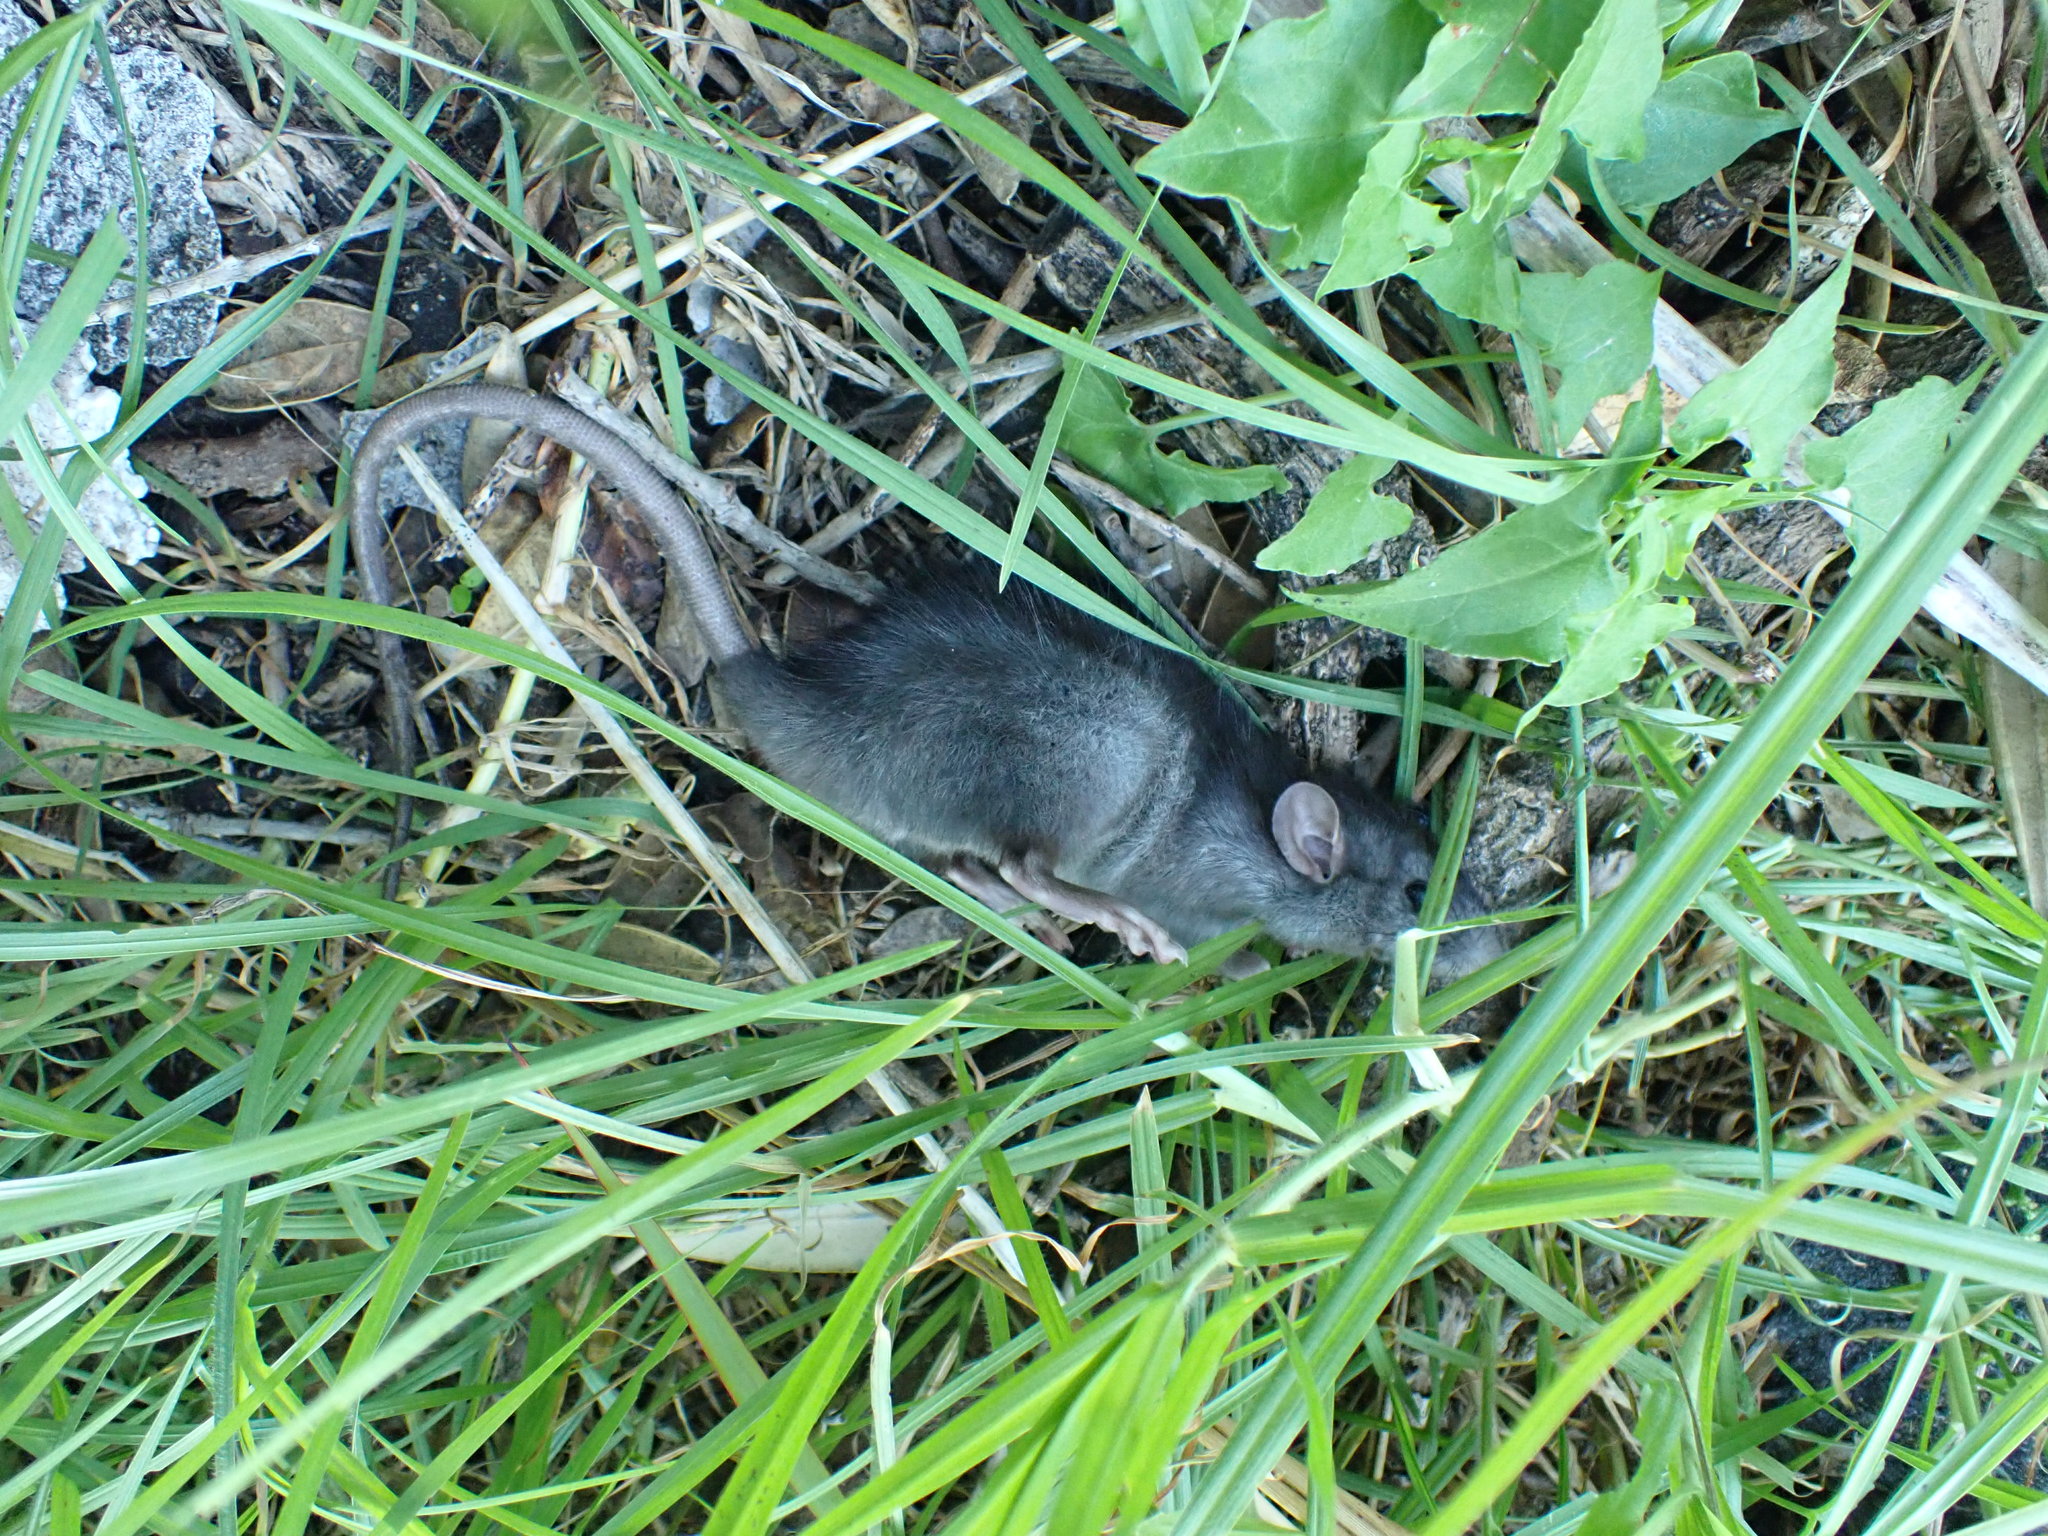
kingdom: Animalia
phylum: Chordata
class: Mammalia
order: Rodentia
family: Muridae
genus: Rattus
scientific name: Rattus rattus
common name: Black rat
